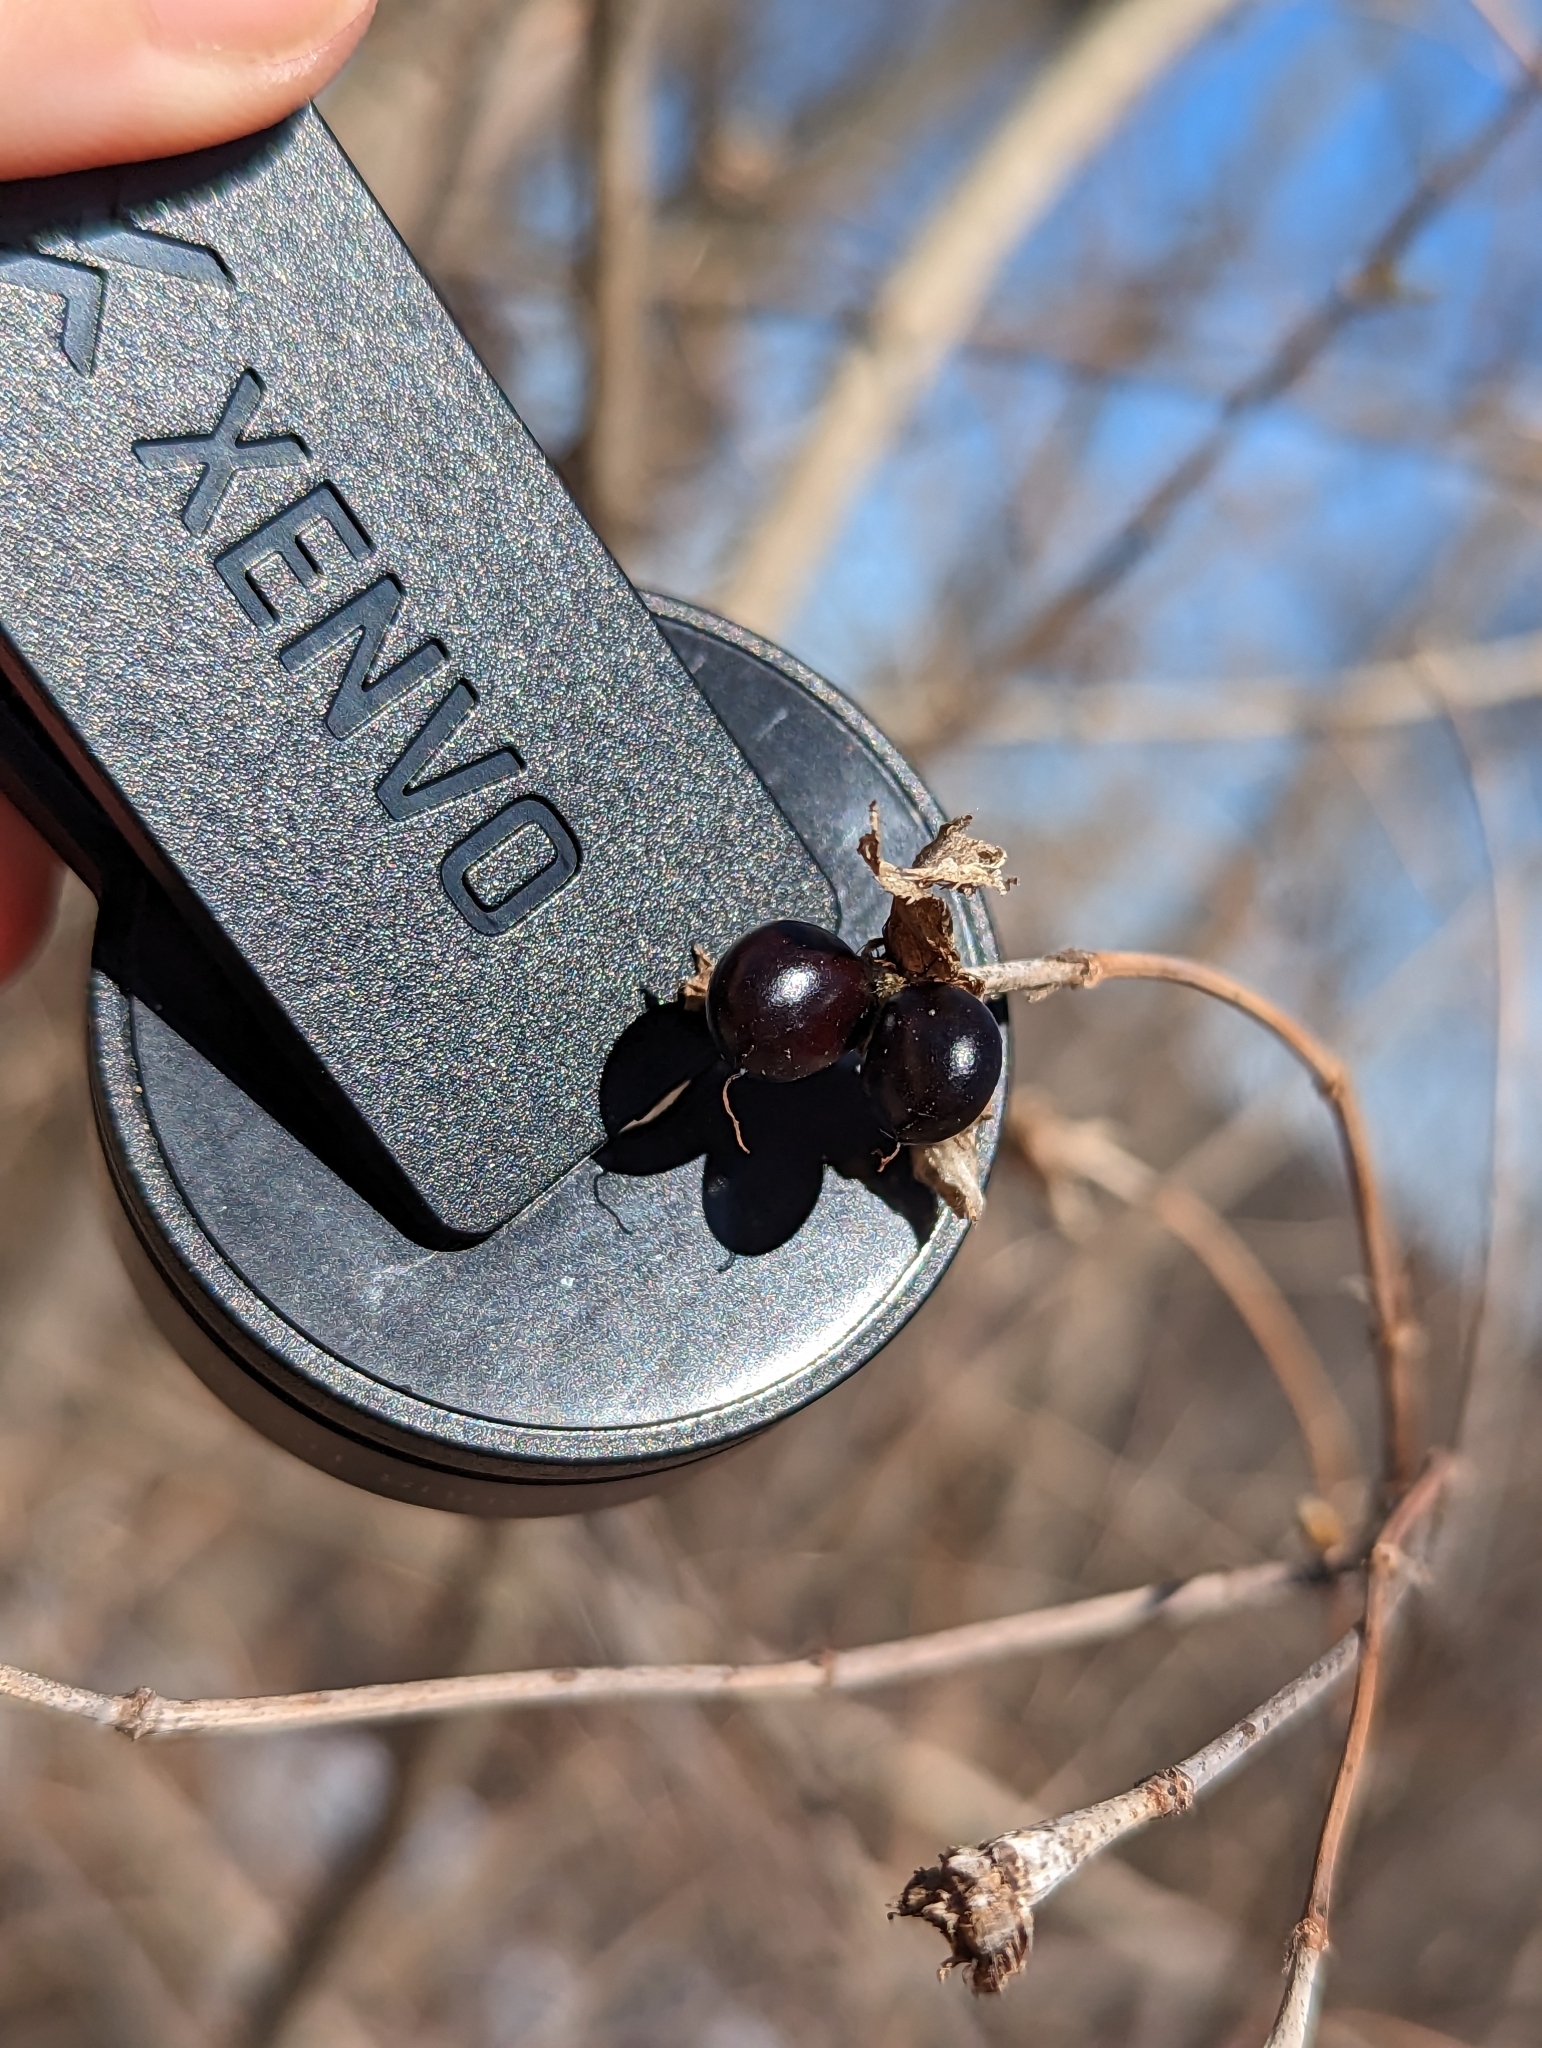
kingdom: Plantae
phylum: Tracheophyta
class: Magnoliopsida
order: Rosales
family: Rosaceae
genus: Rhodotypos
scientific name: Rhodotypos scandens
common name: Jetbead
